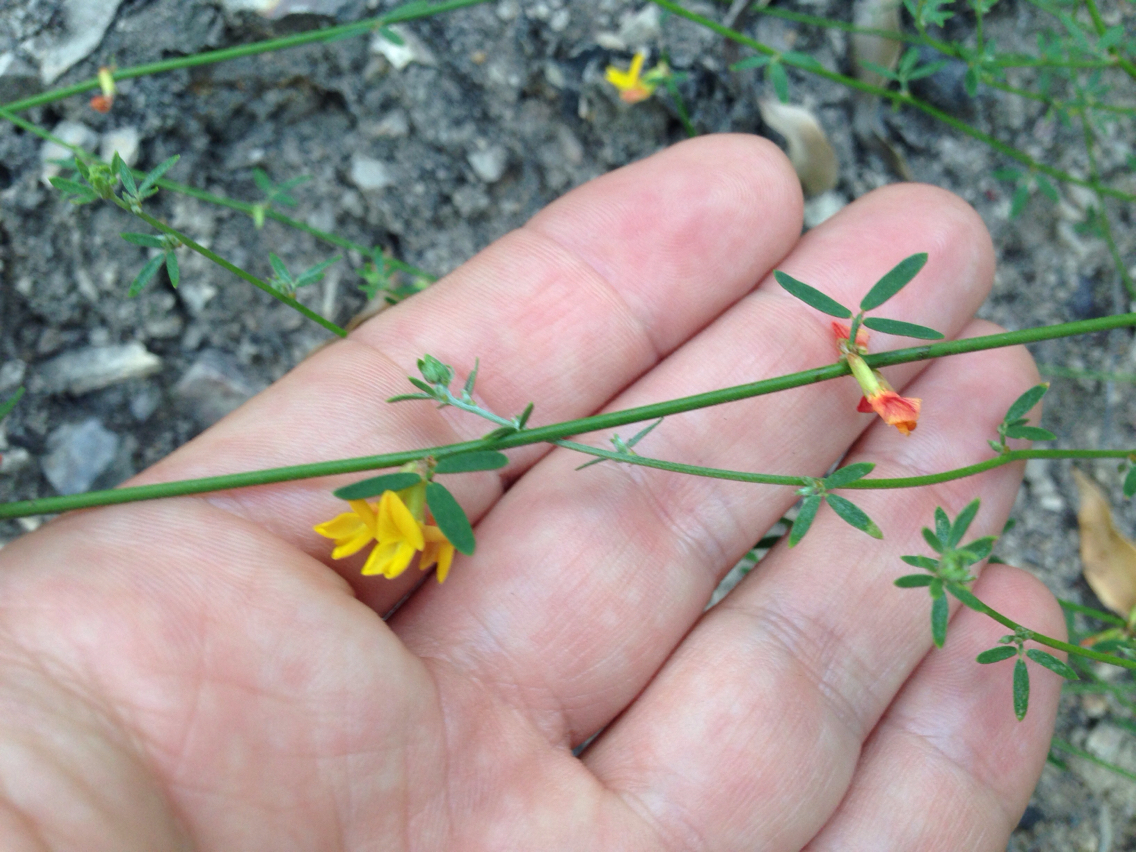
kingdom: Plantae
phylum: Tracheophyta
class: Magnoliopsida
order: Fabales
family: Fabaceae
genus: Acmispon
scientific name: Acmispon glaber
